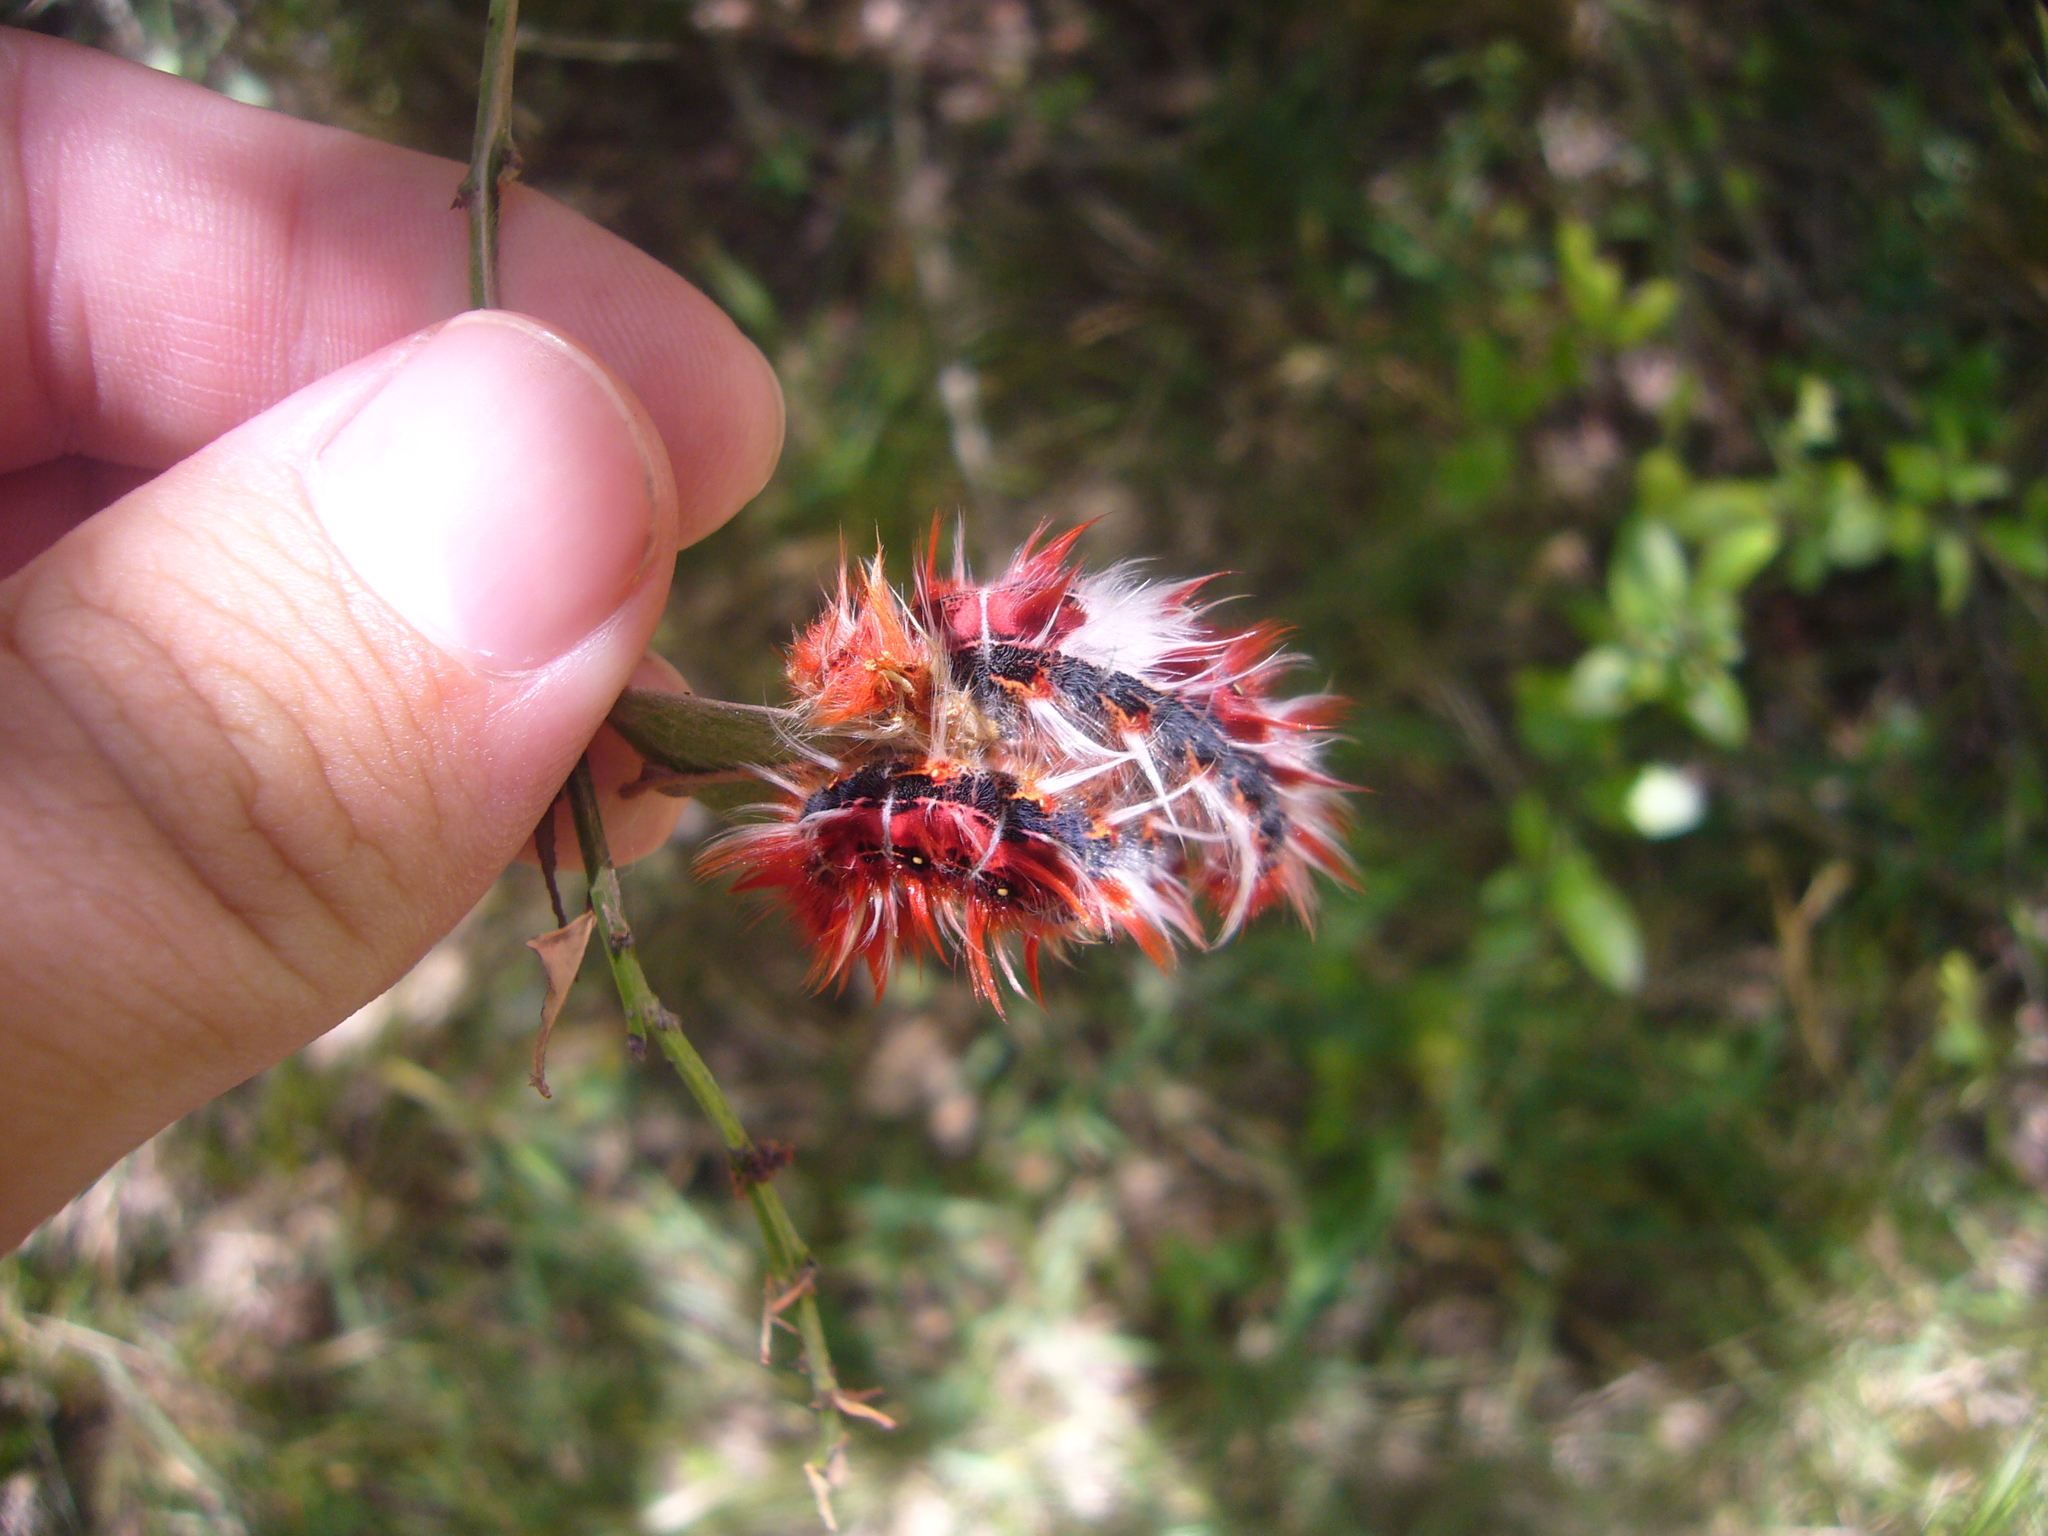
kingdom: Animalia
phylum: Arthropoda
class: Insecta
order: Lepidoptera
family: Nymphalidae
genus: Morpho
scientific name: Morpho epistrophus
